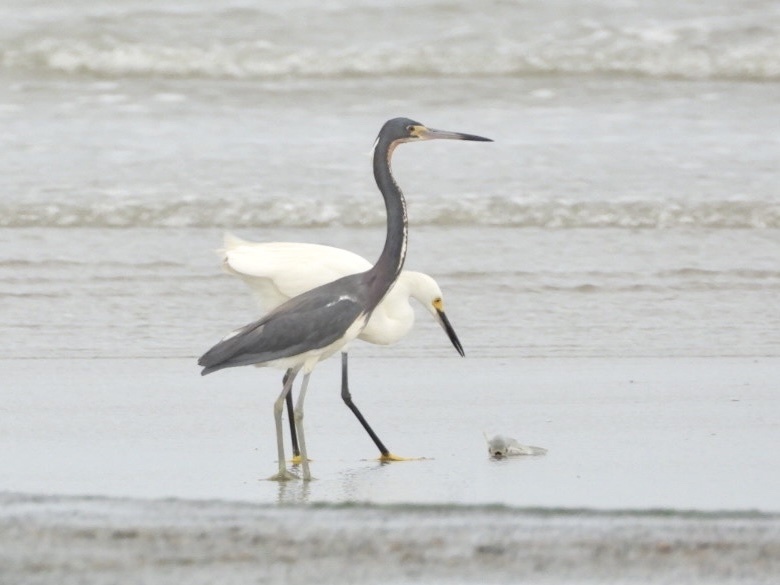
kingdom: Animalia
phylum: Chordata
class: Aves
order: Pelecaniformes
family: Ardeidae
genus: Egretta
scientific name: Egretta thula
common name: Snowy egret
